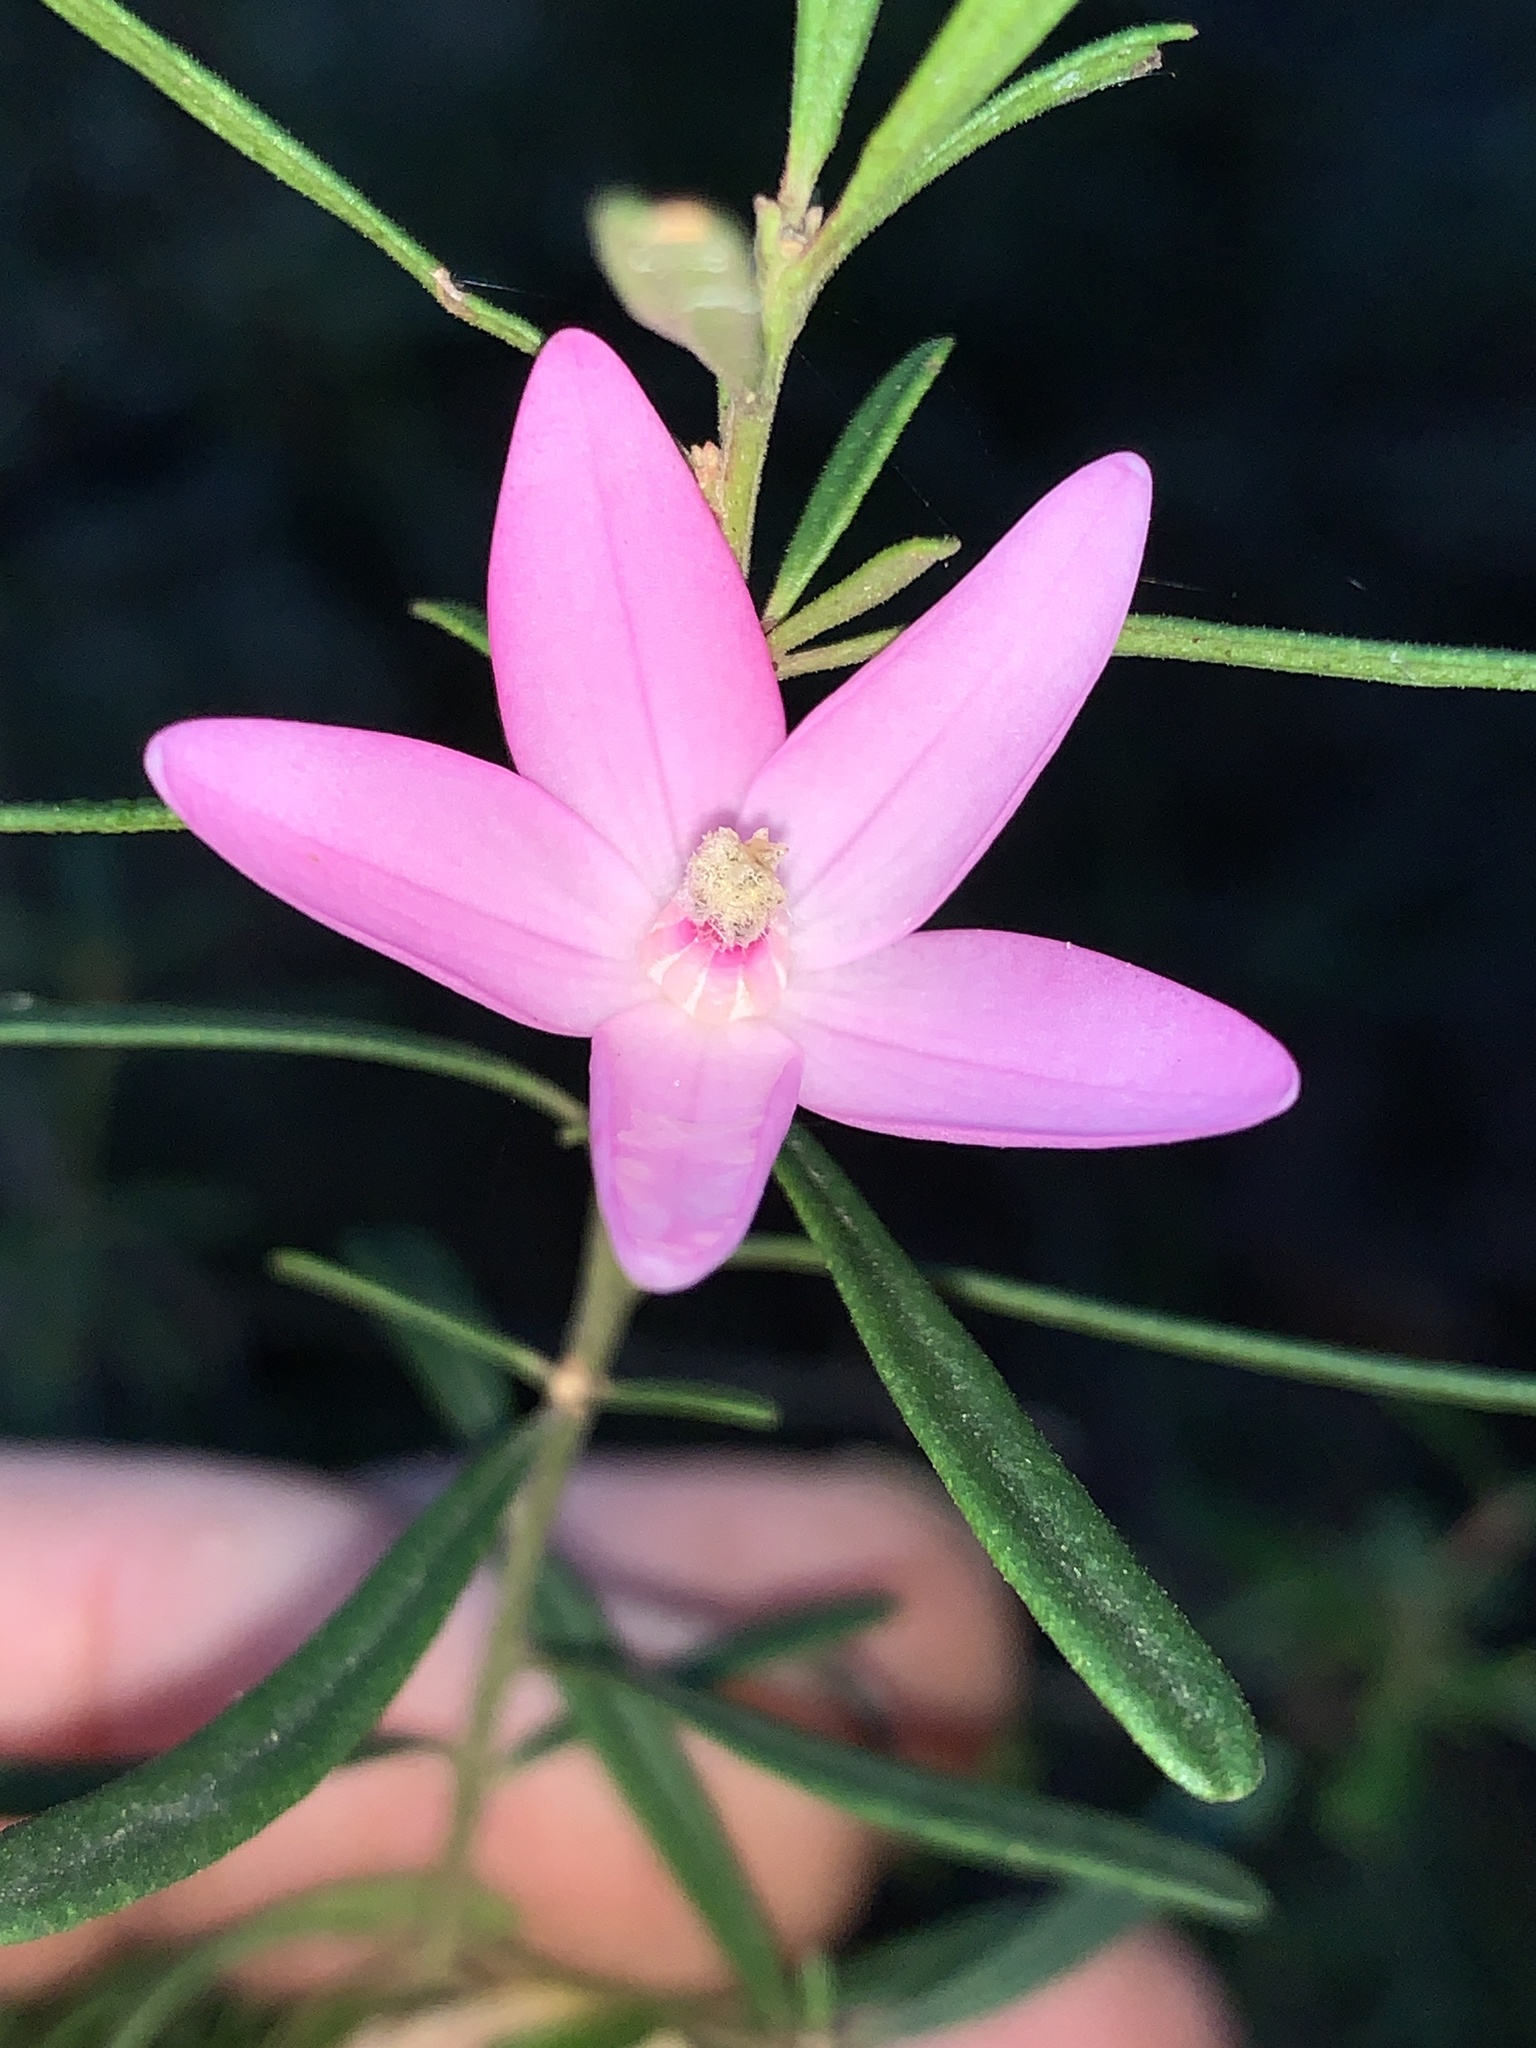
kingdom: Plantae
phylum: Tracheophyta
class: Magnoliopsida
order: Sapindales
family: Rutaceae
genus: Crowea
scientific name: Crowea exalata
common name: Small crowea
